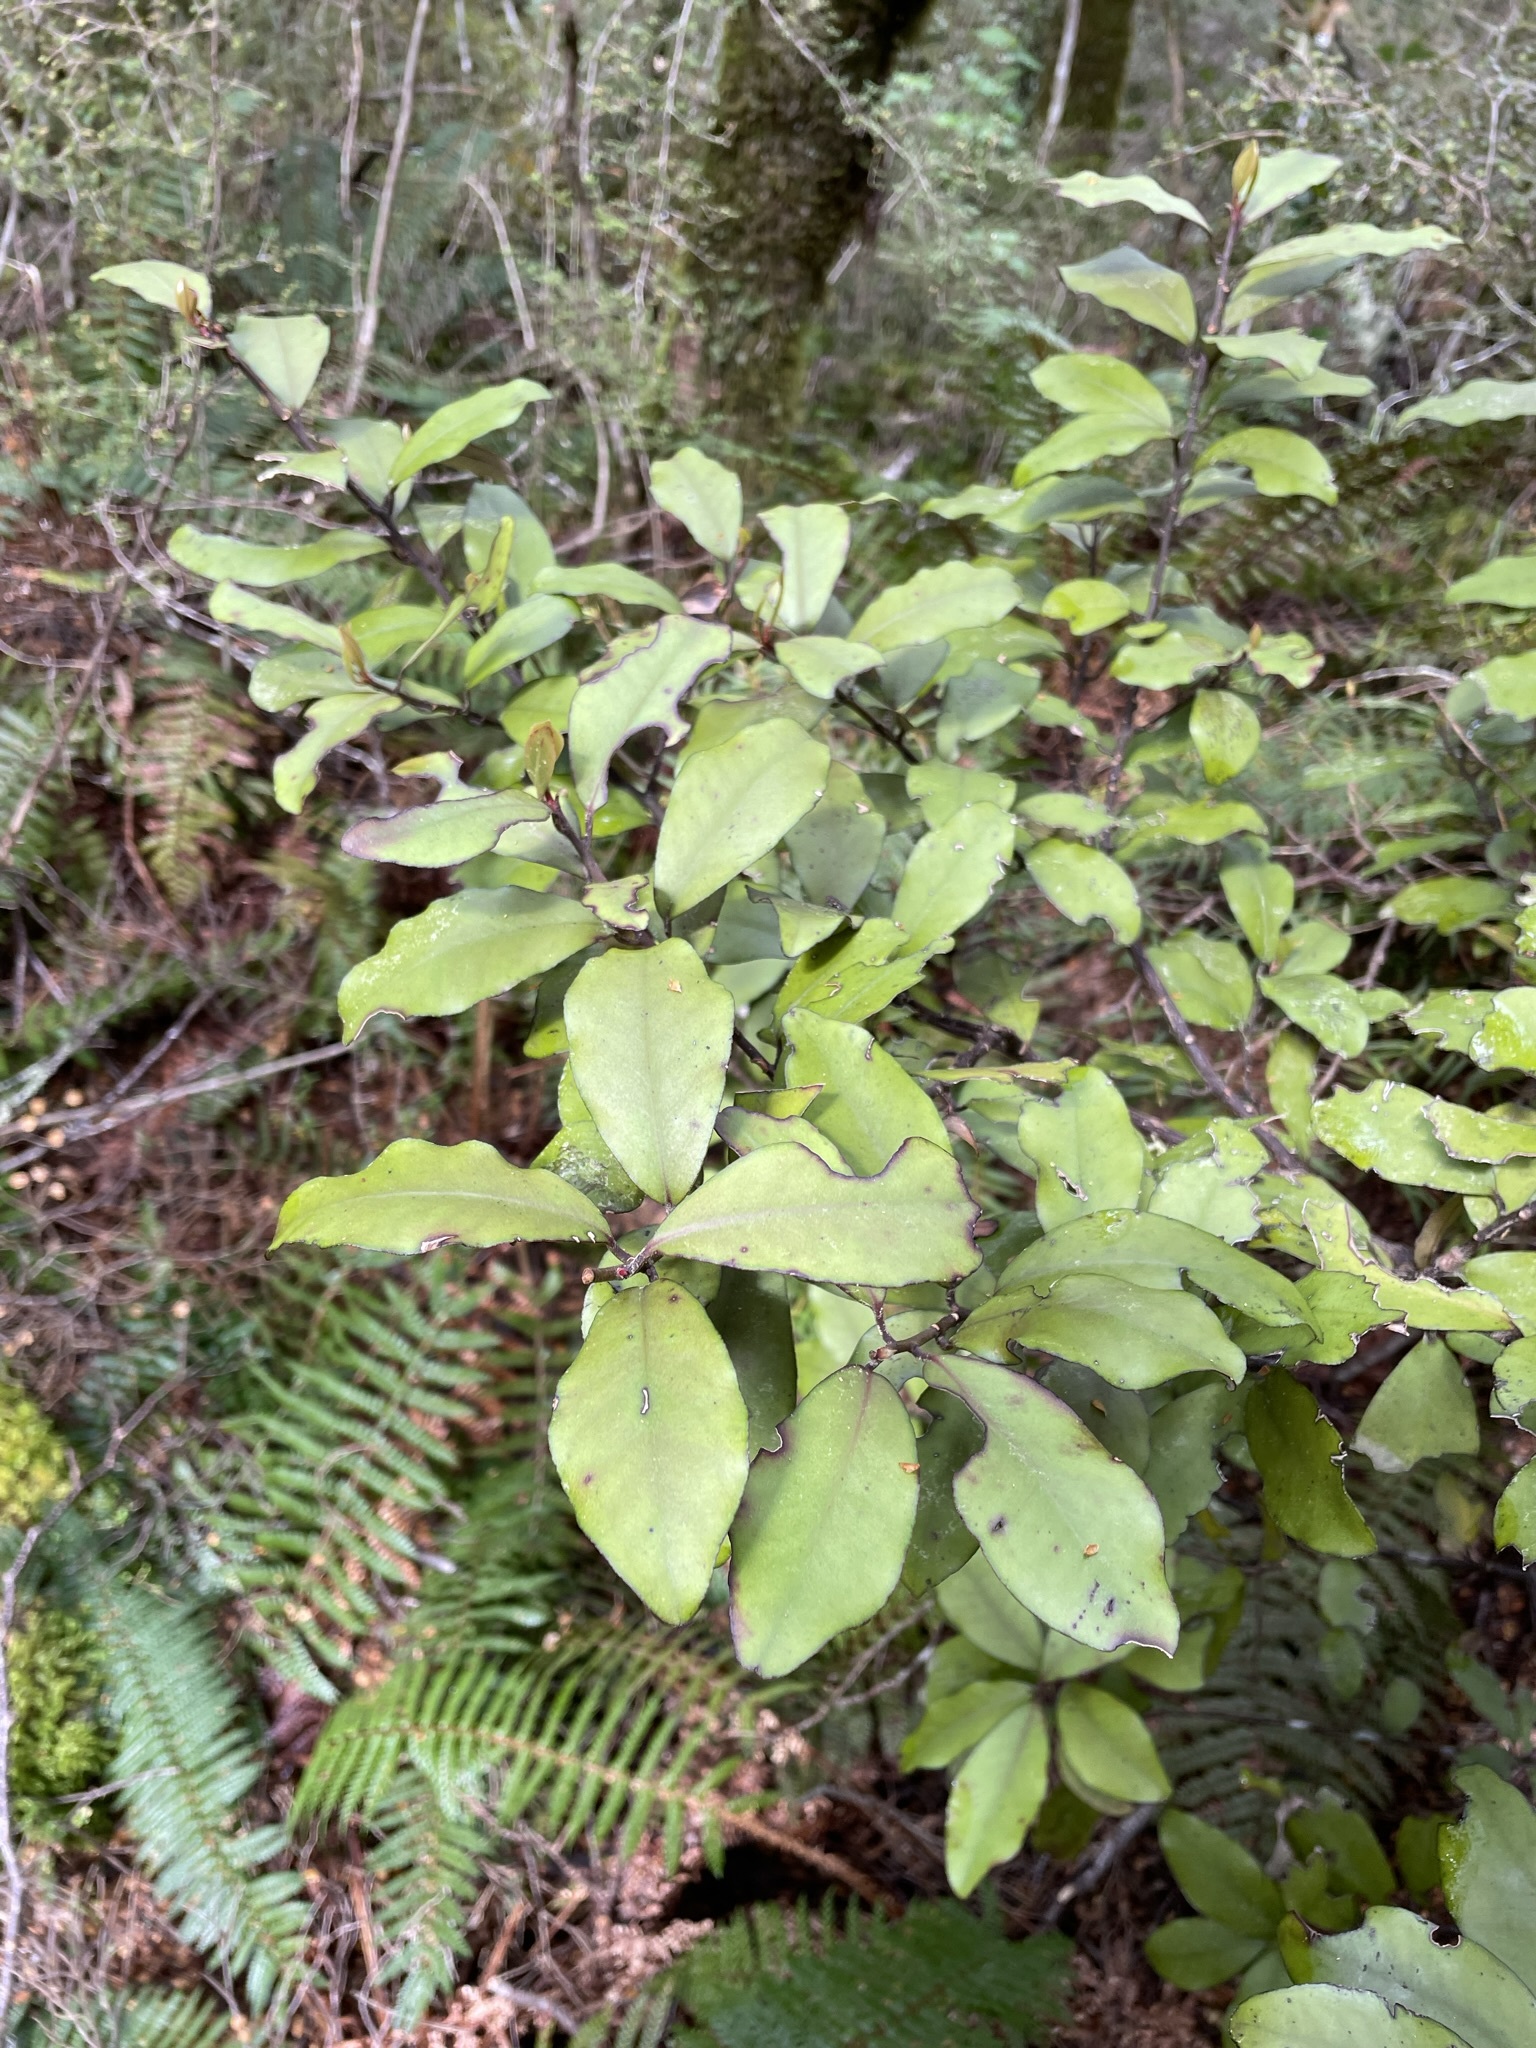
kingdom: Plantae
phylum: Tracheophyta
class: Magnoliopsida
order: Canellales
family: Winteraceae
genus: Pseudowintera
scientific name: Pseudowintera colorata
